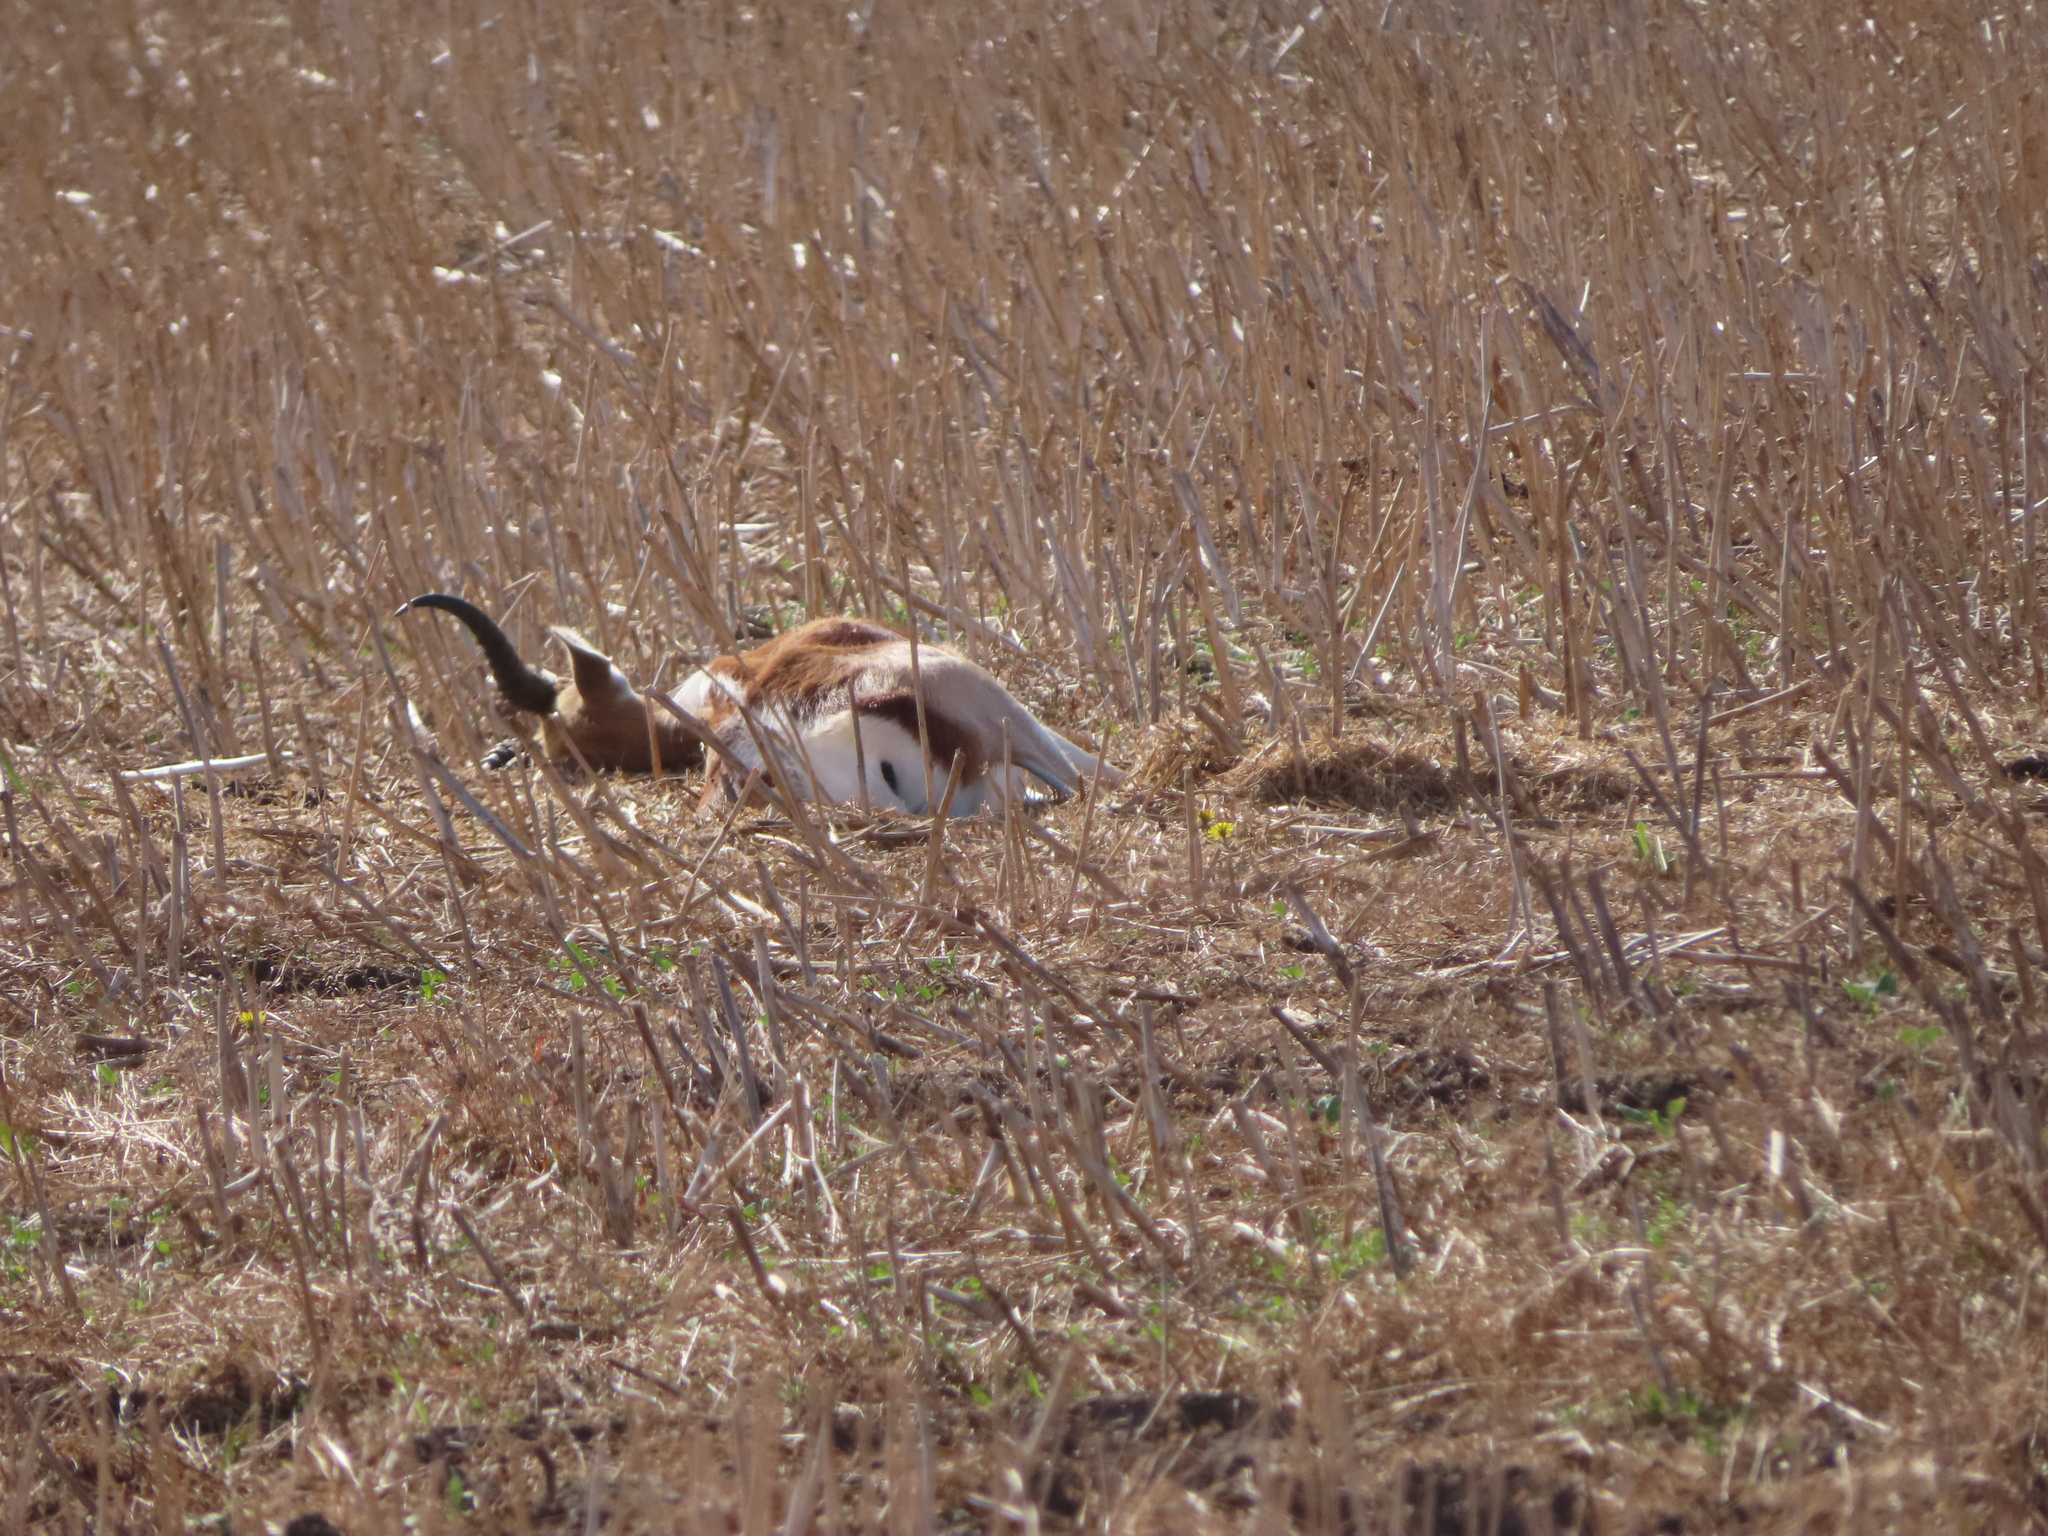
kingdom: Animalia
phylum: Chordata
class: Mammalia
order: Artiodactyla
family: Bovidae
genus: Antidorcas
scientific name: Antidorcas marsupialis
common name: Springbok
